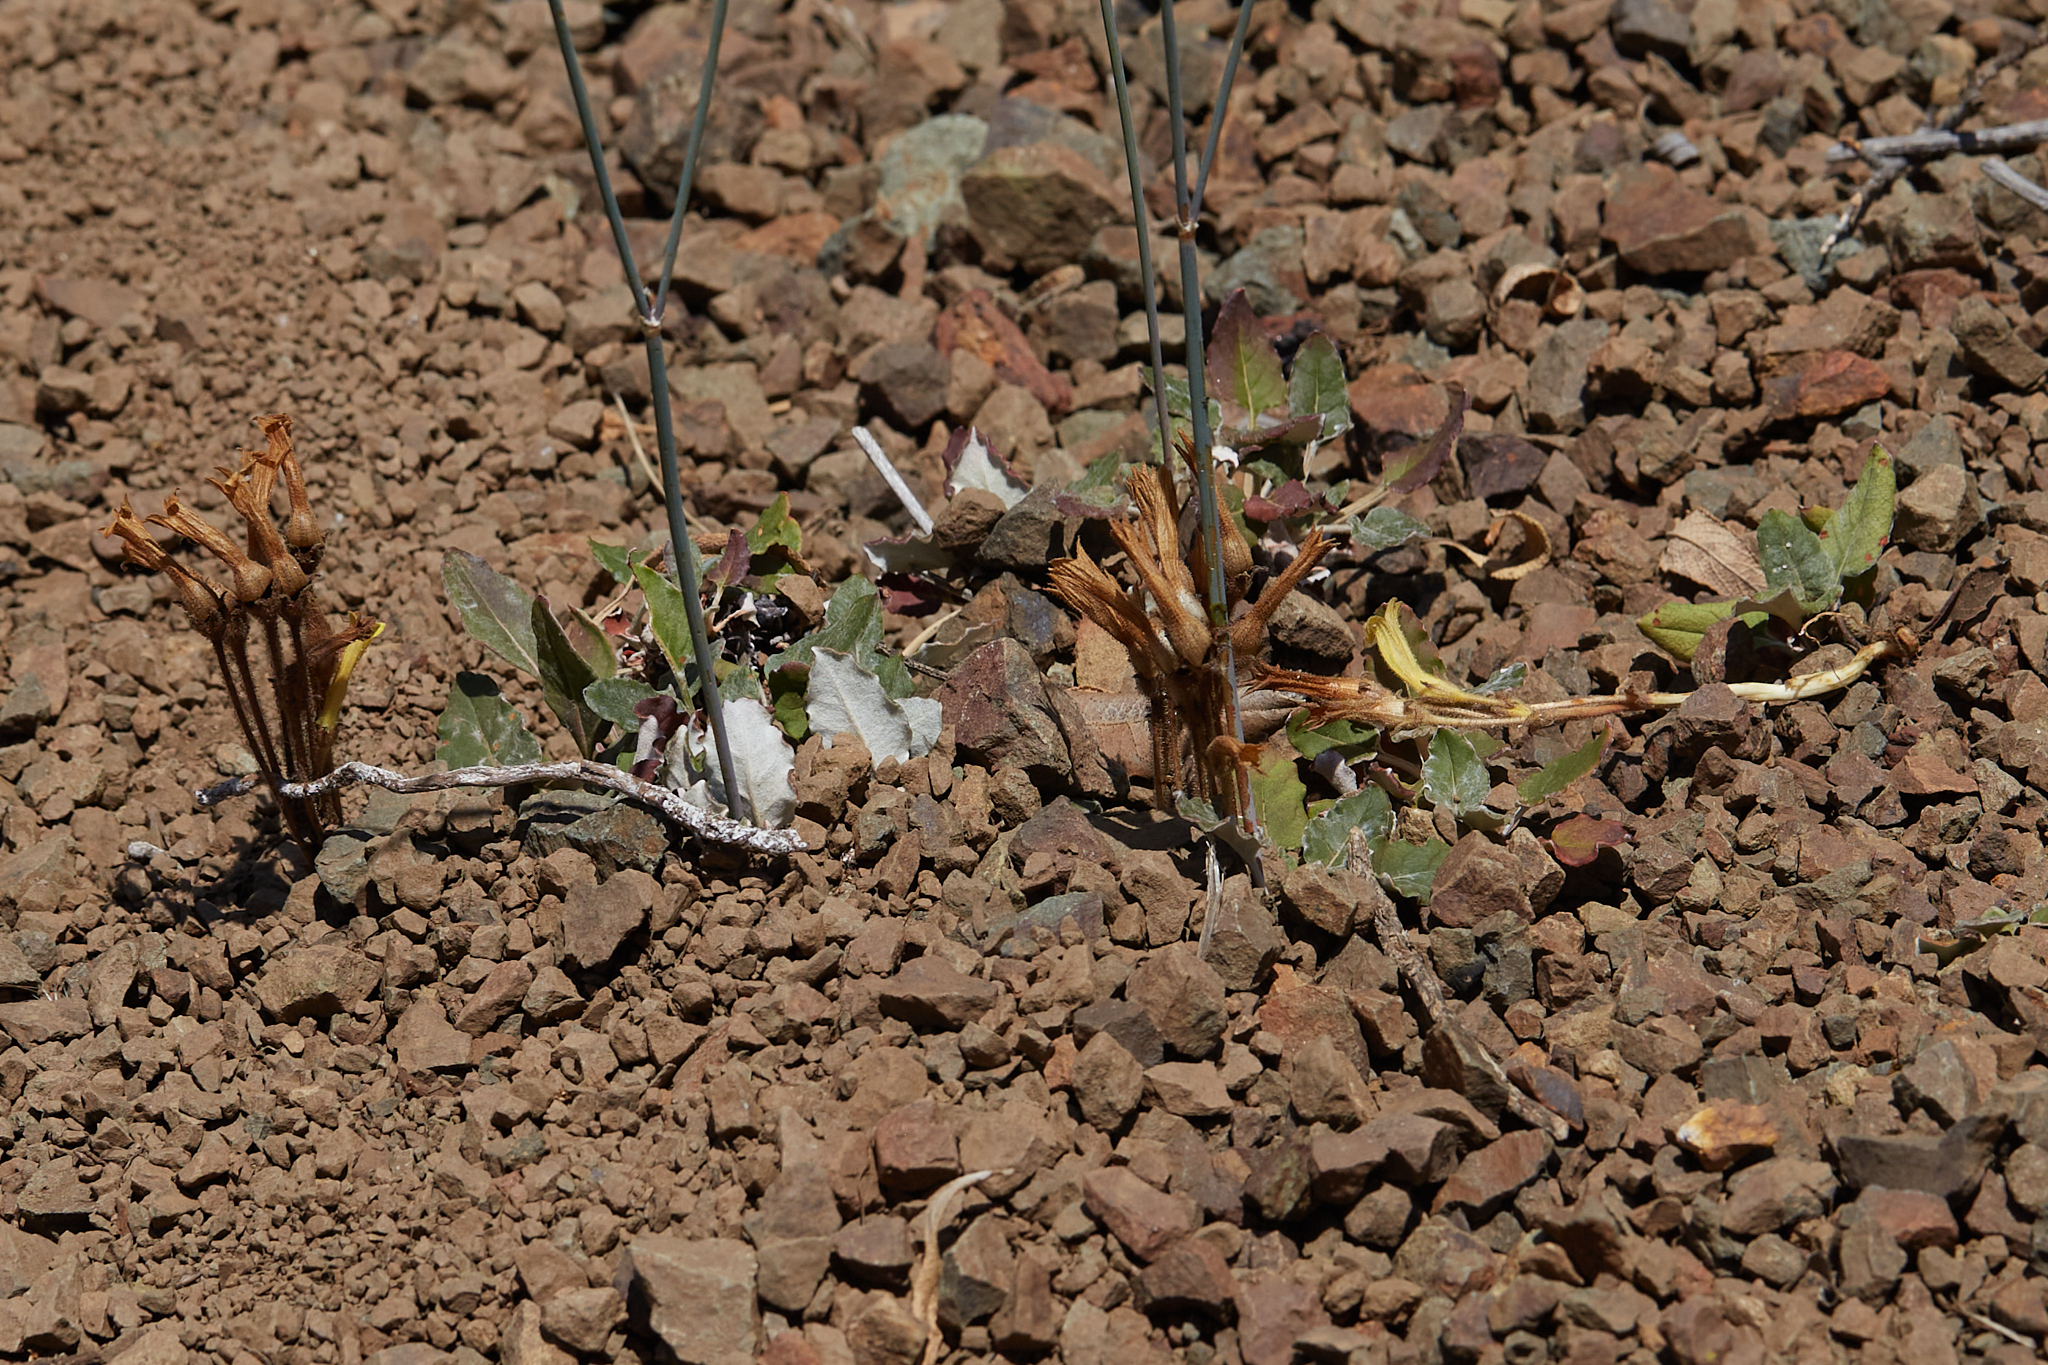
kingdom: Plantae
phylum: Tracheophyta
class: Magnoliopsida
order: Lamiales
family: Orobanchaceae
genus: Aphyllon
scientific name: Aphyllon franciscanum
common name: San francisco broomrape
